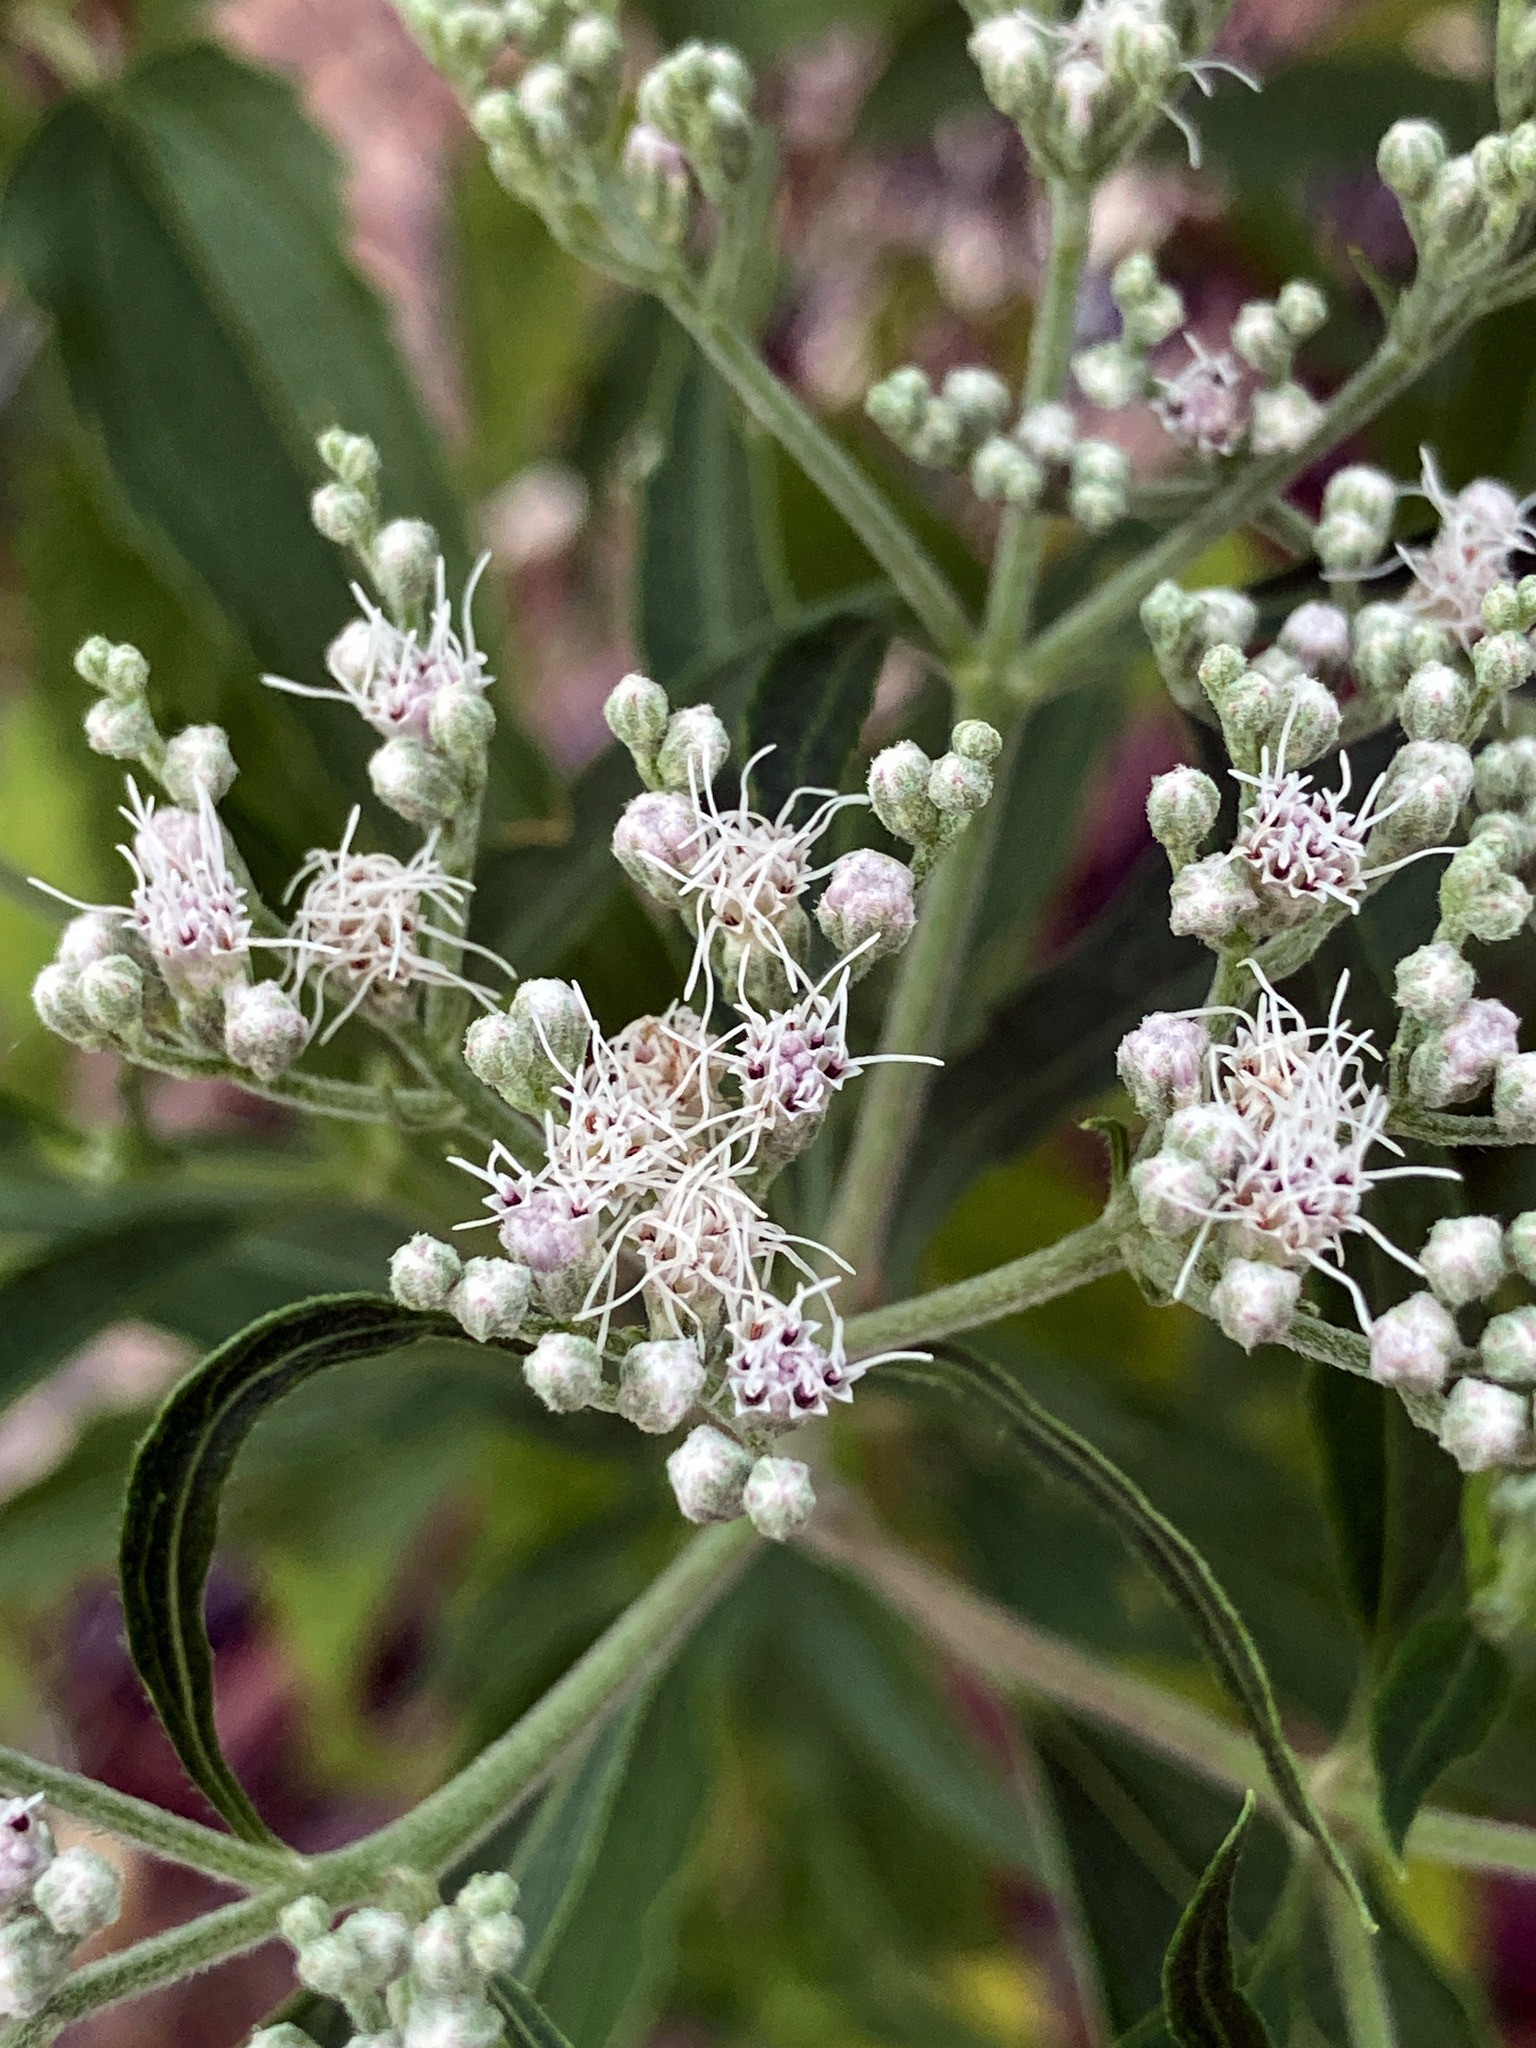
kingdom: Plantae
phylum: Tracheophyta
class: Magnoliopsida
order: Asterales
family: Asteraceae
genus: Eupatorium
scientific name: Eupatorium serotinum
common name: Late boneset
